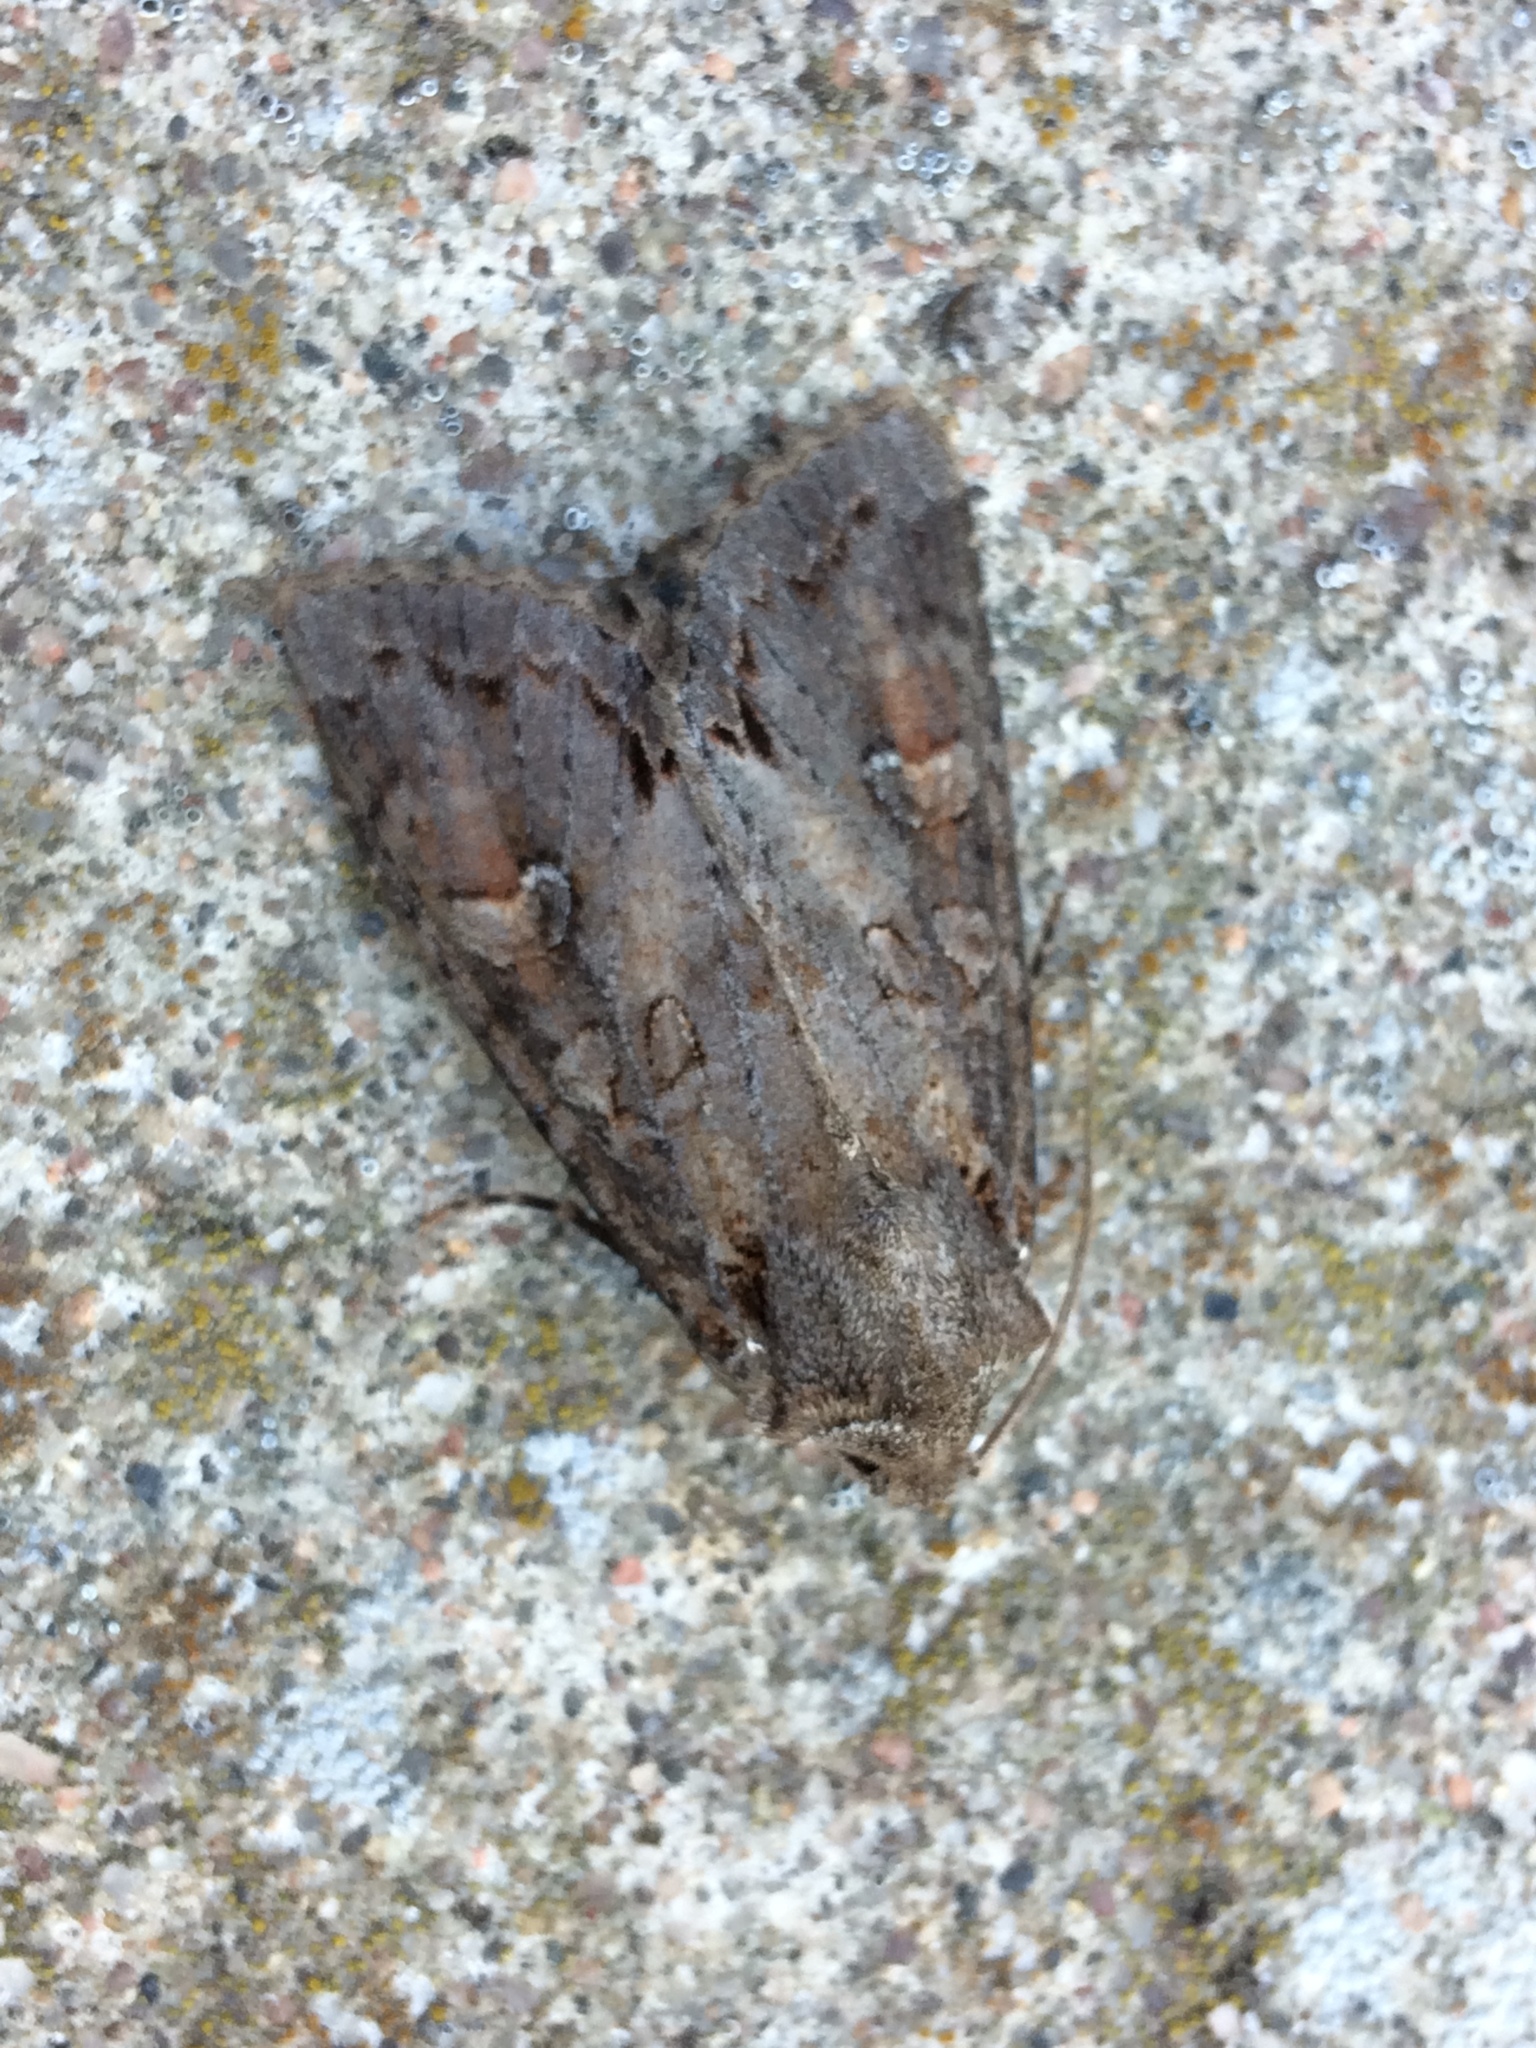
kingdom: Animalia
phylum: Arthropoda
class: Insecta
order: Lepidoptera
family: Noctuidae
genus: Polia
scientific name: Polia bombycina
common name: Pale shining brown
